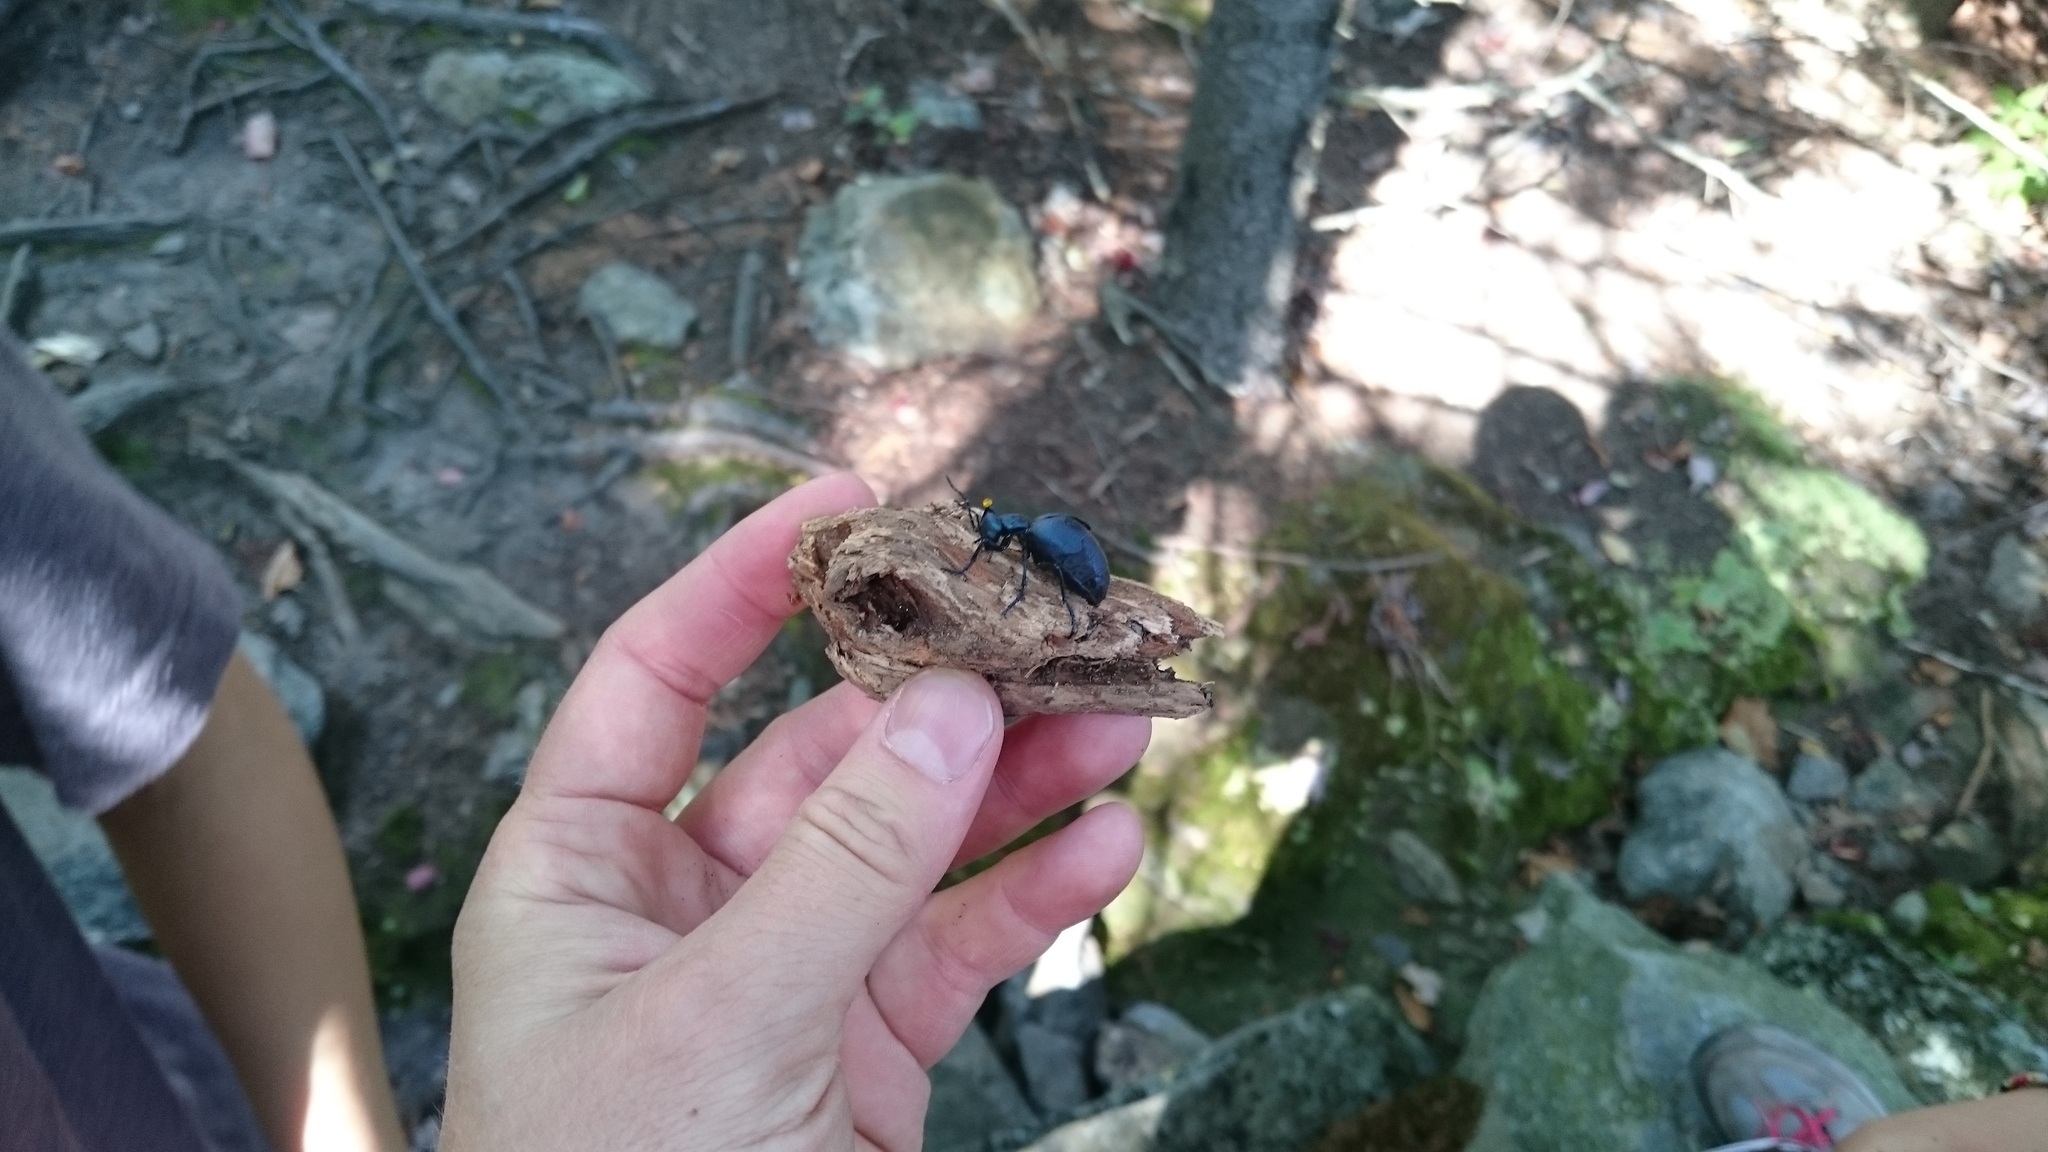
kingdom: Animalia
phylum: Arthropoda
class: Insecta
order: Coleoptera
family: Meloidae
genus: Meloe
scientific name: Meloe impressus
